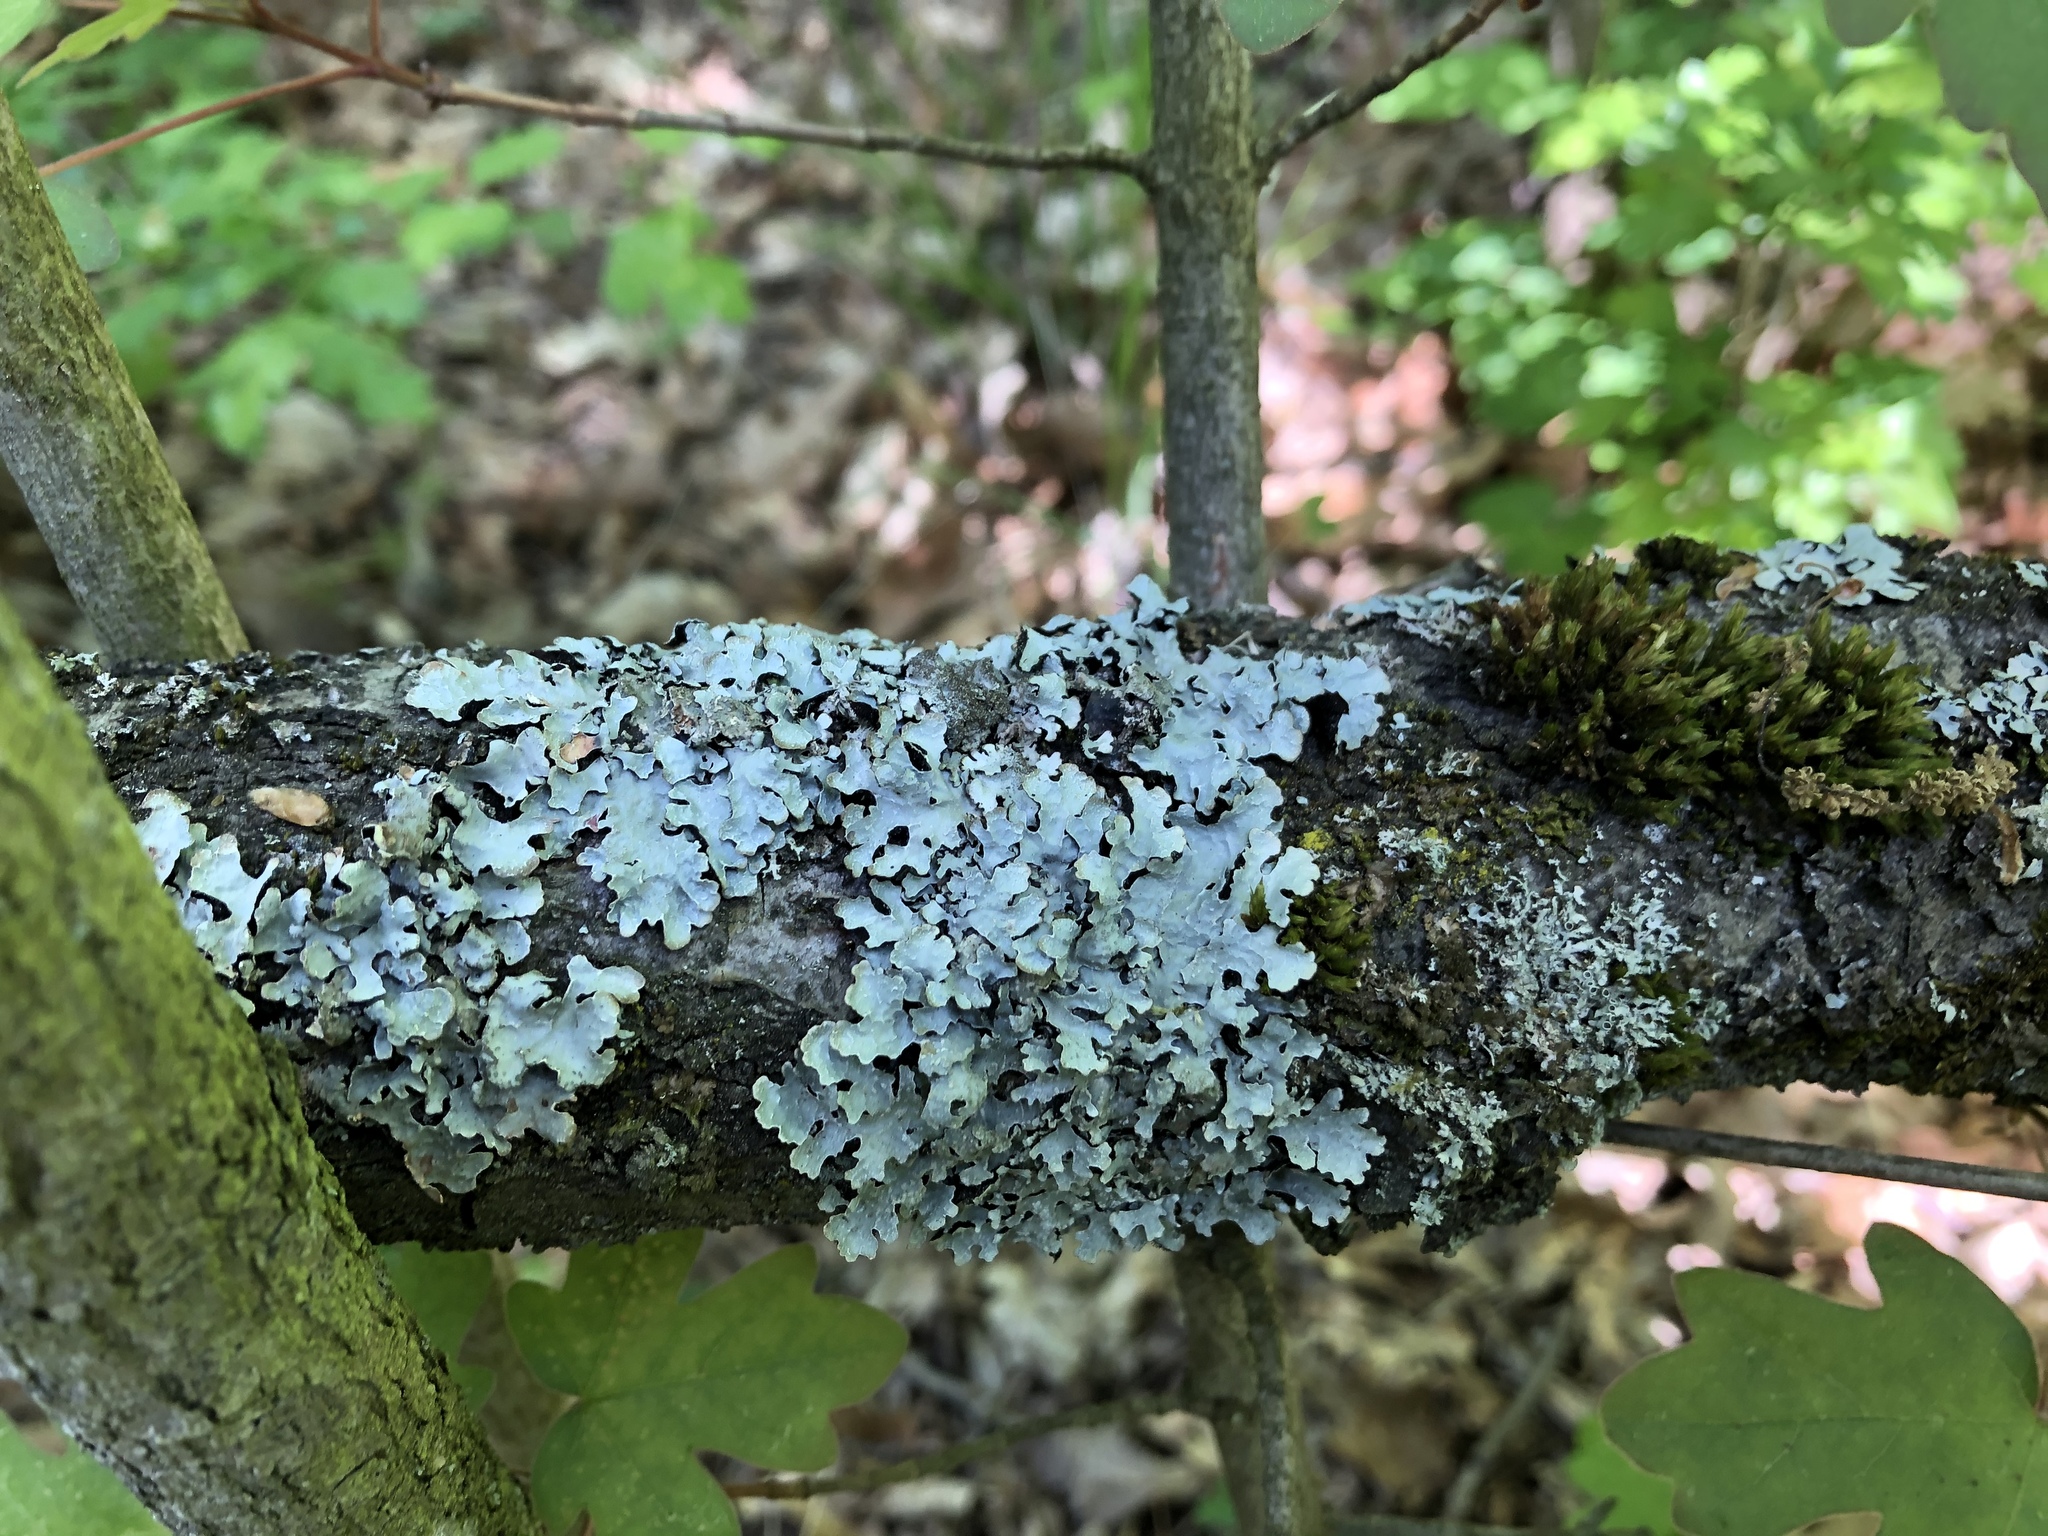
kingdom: Fungi
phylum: Ascomycota
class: Lecanoromycetes
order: Lecanorales
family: Parmeliaceae
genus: Parmelia
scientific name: Parmelia sulcata
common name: Netted shield lichen
